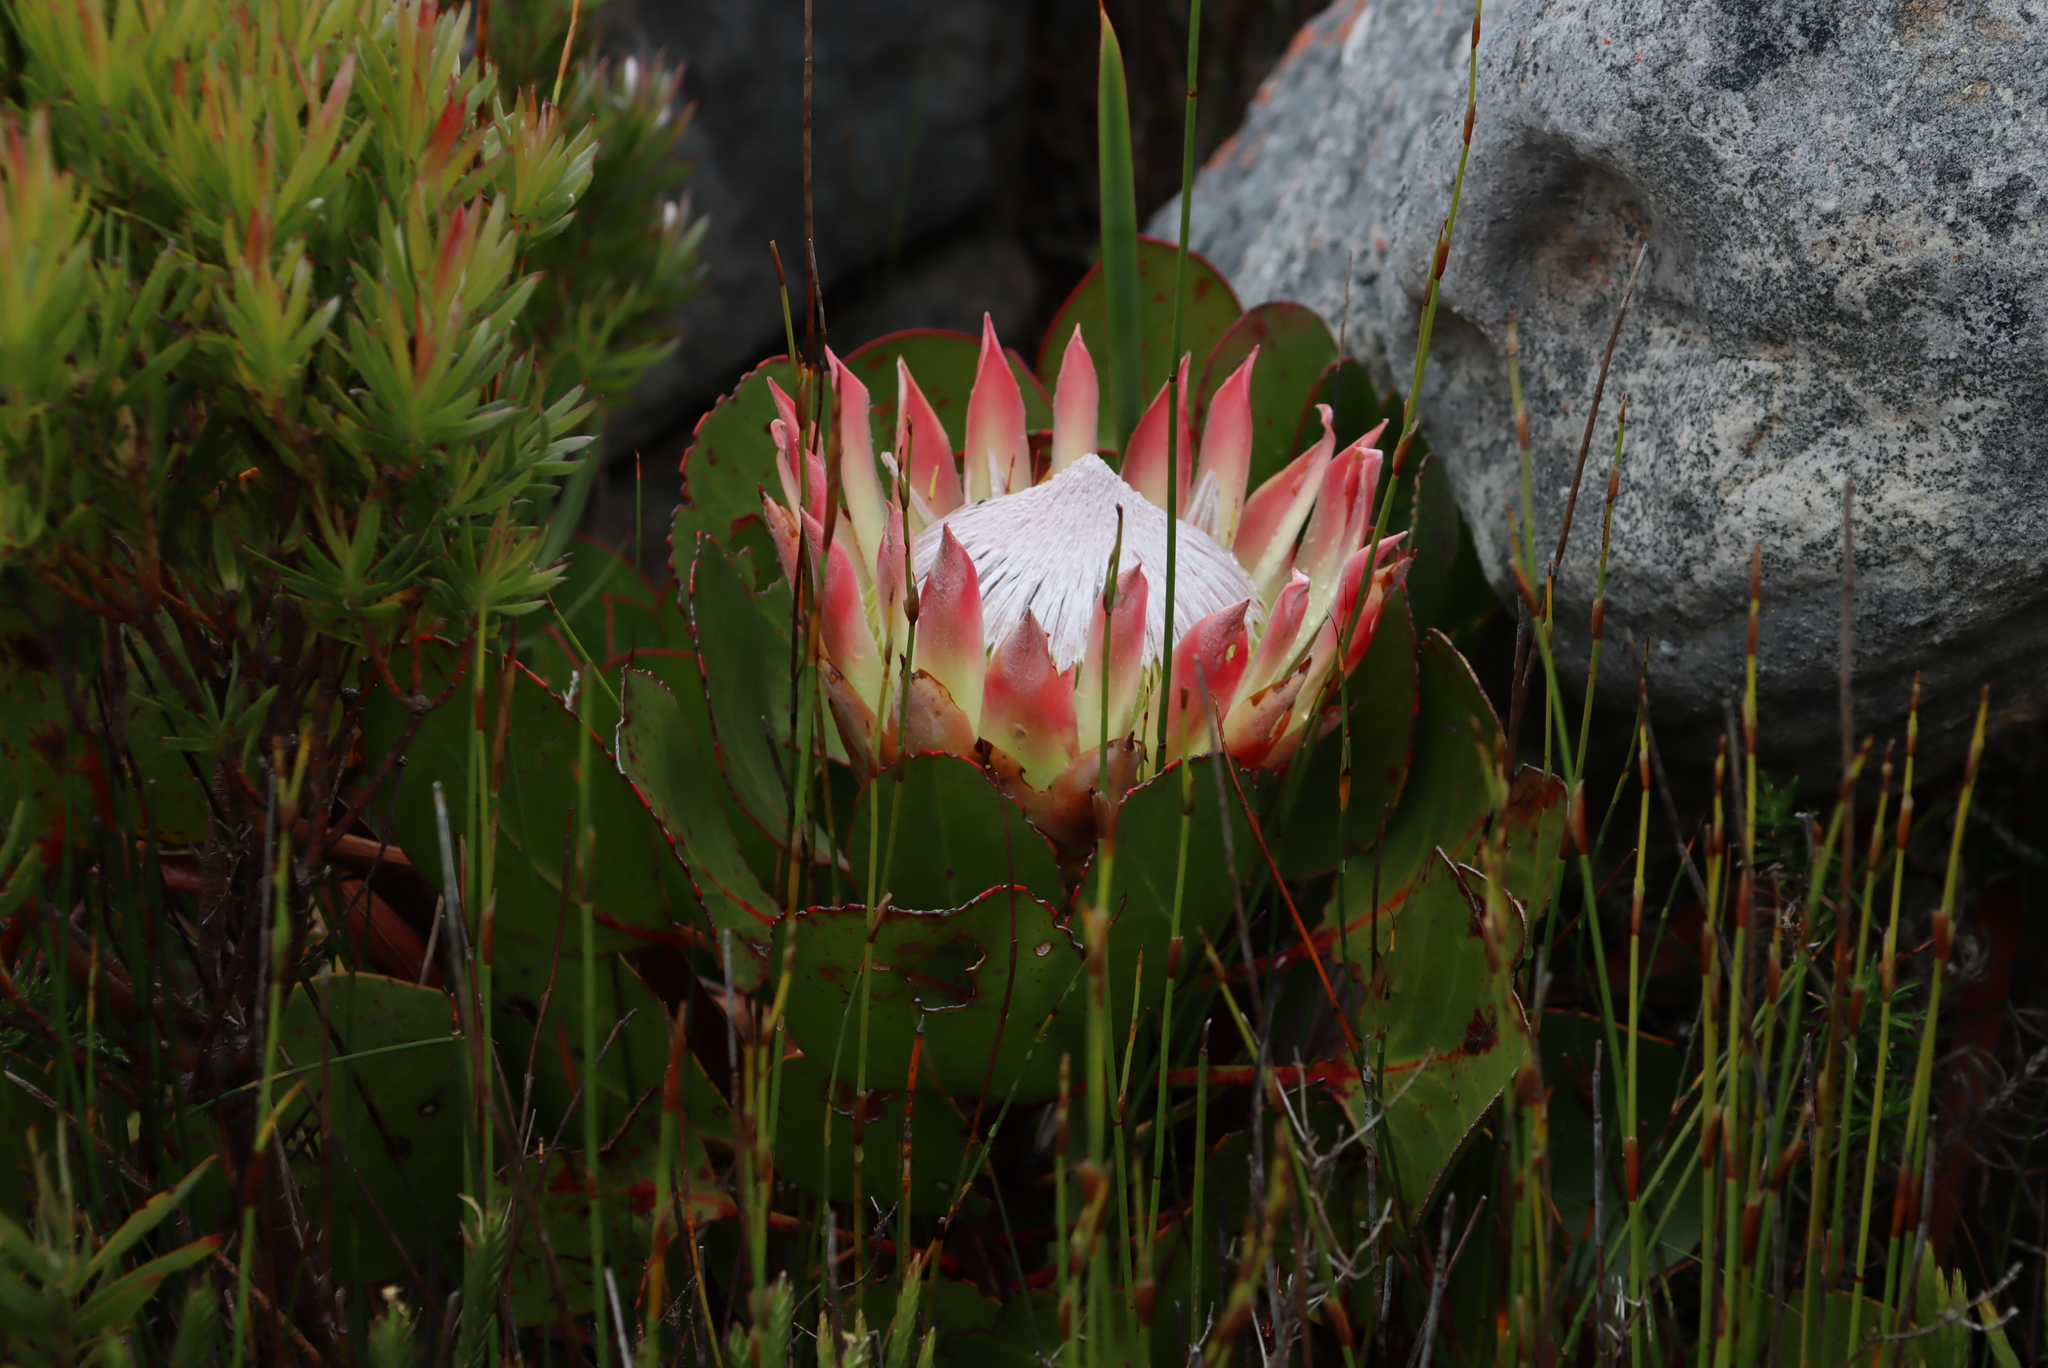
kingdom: Plantae
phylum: Tracheophyta
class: Magnoliopsida
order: Proteales
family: Proteaceae
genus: Protea
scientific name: Protea cynaroides
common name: King protea
